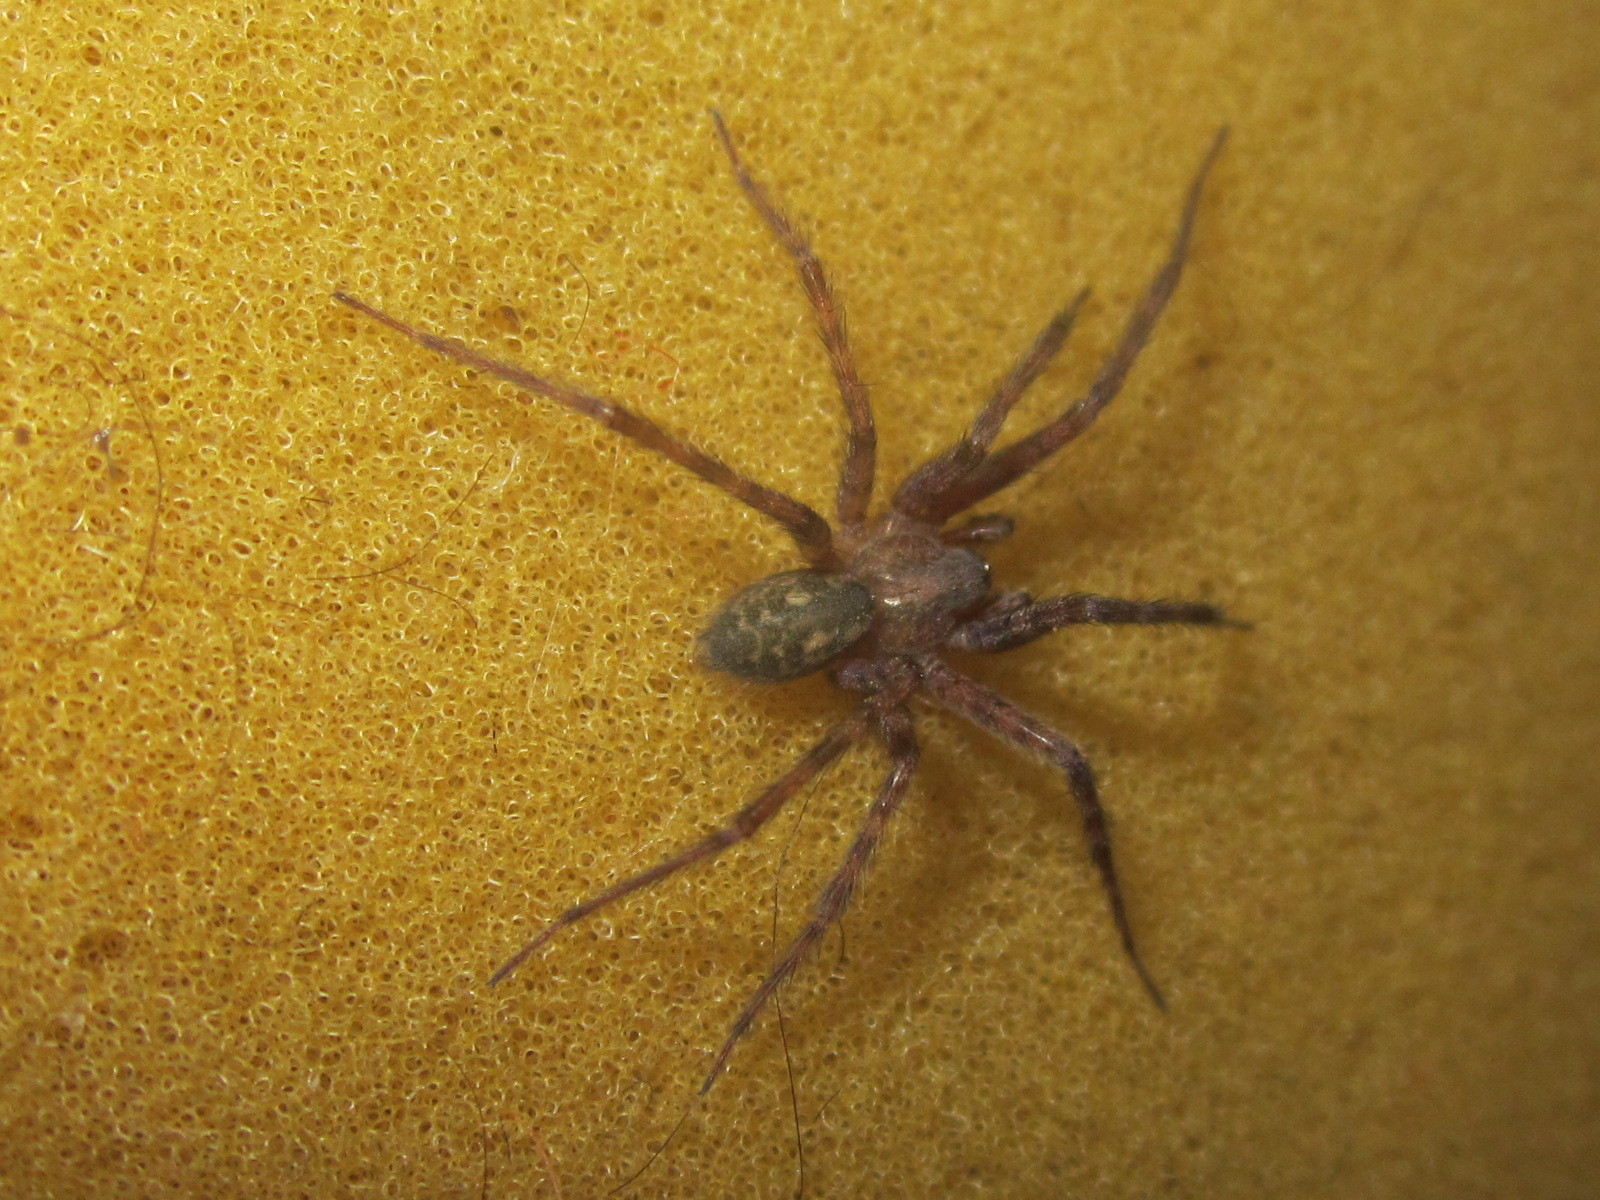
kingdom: Animalia
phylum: Arthropoda
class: Arachnida
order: Araneae
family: Agelenidae
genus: Tegenaria
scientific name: Tegenaria pagana
